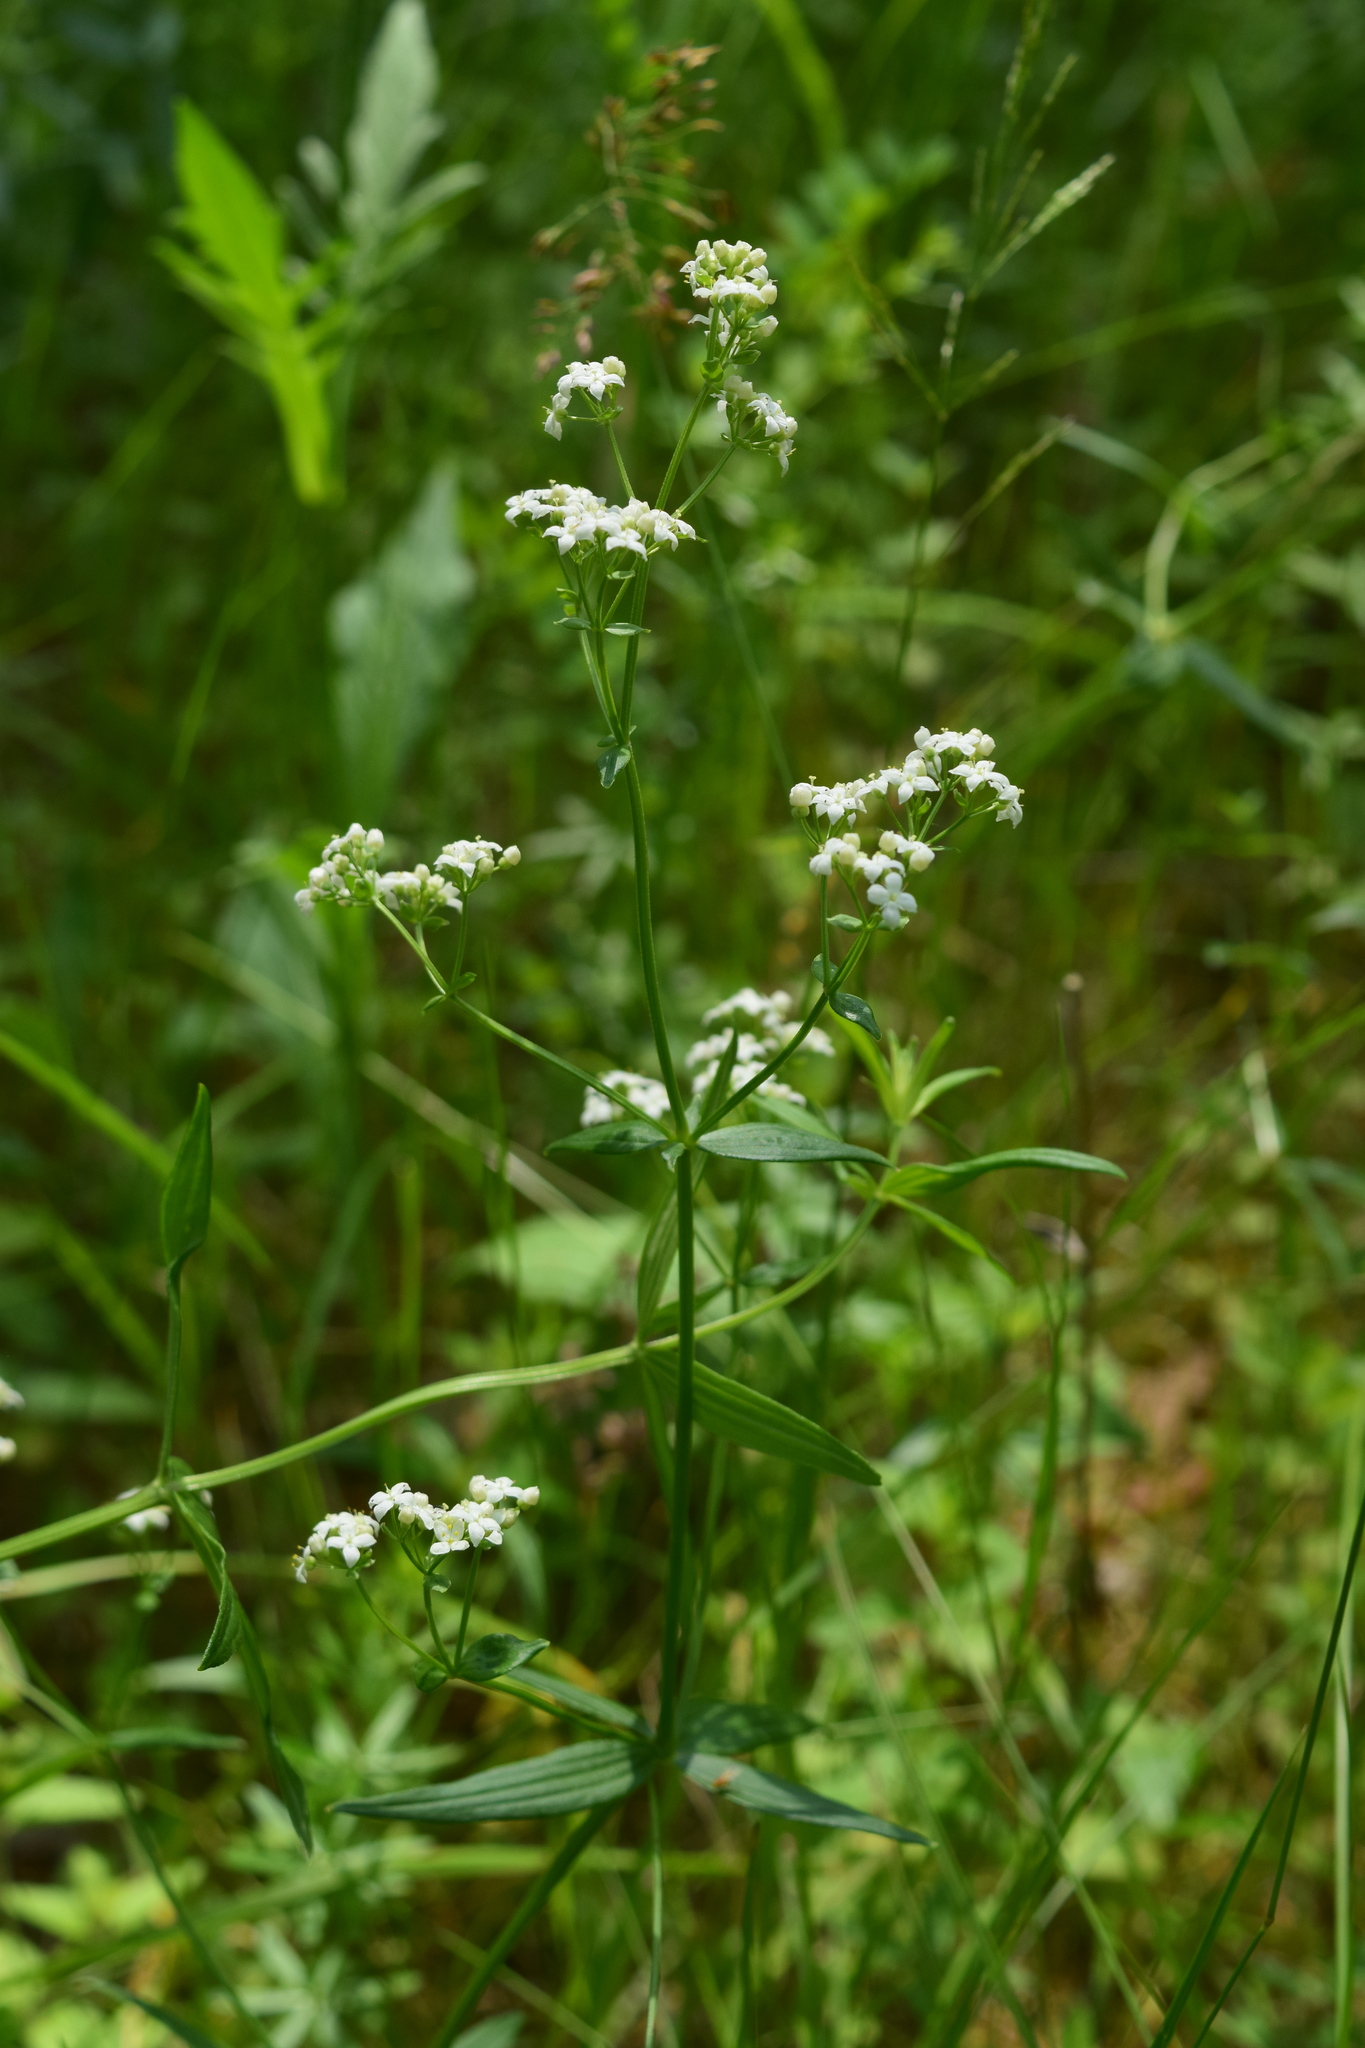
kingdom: Plantae
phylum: Tracheophyta
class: Magnoliopsida
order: Gentianales
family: Rubiaceae
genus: Galium
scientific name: Galium boreale
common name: Northern bedstraw
